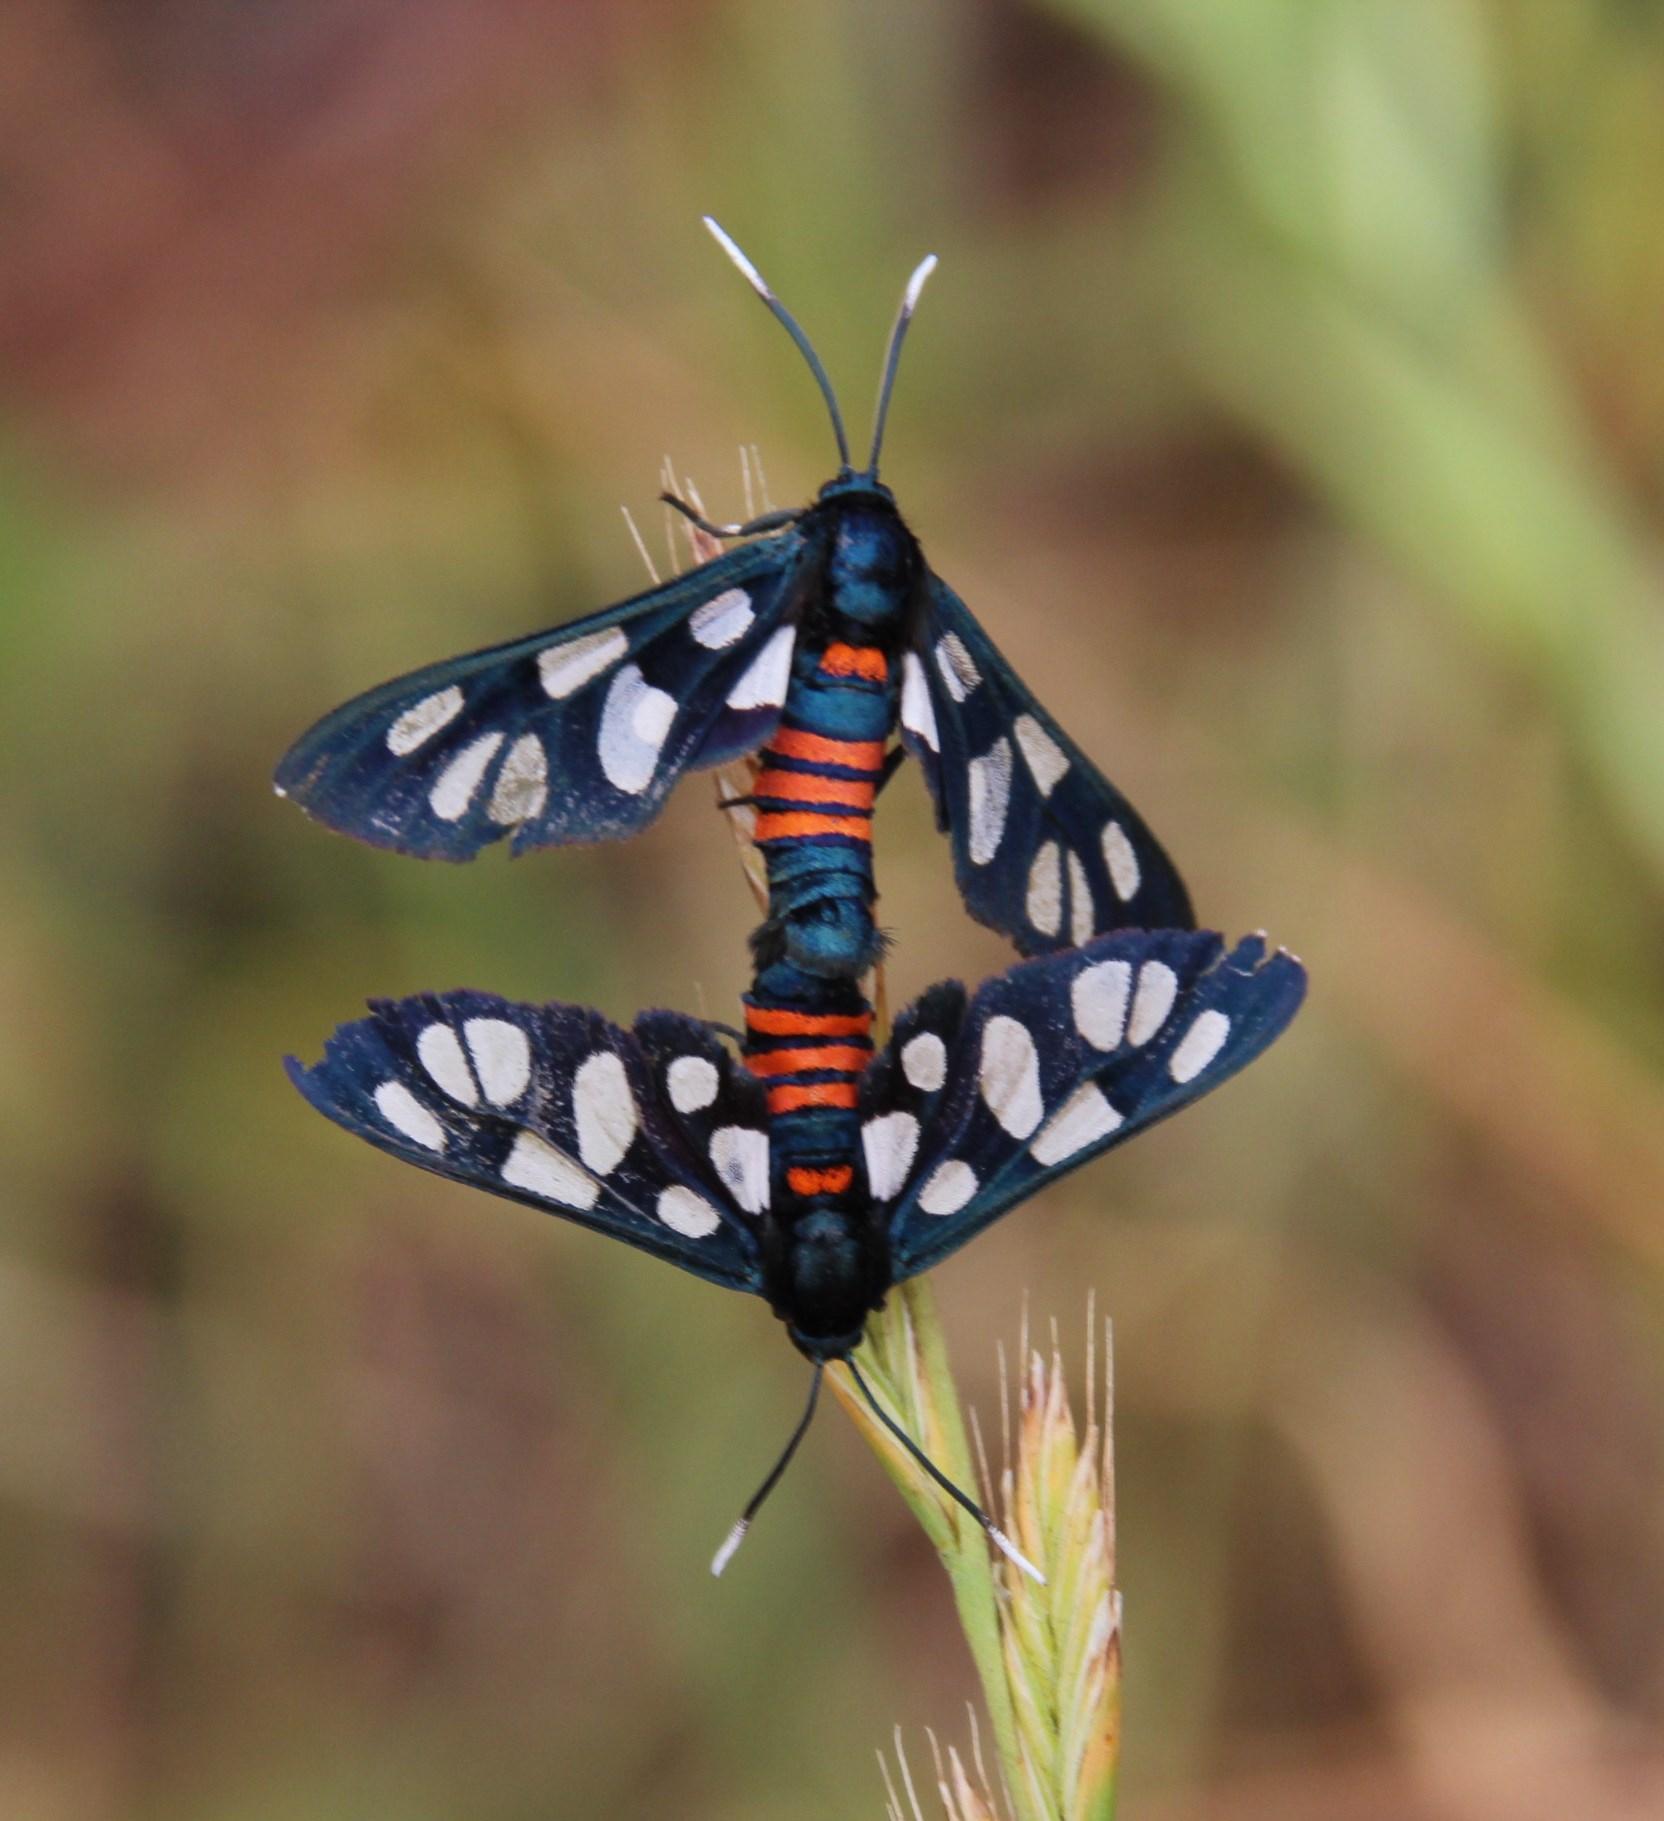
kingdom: Animalia
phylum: Arthropoda
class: Insecta
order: Lepidoptera
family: Erebidae
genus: Amata
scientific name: Amata cerbera
